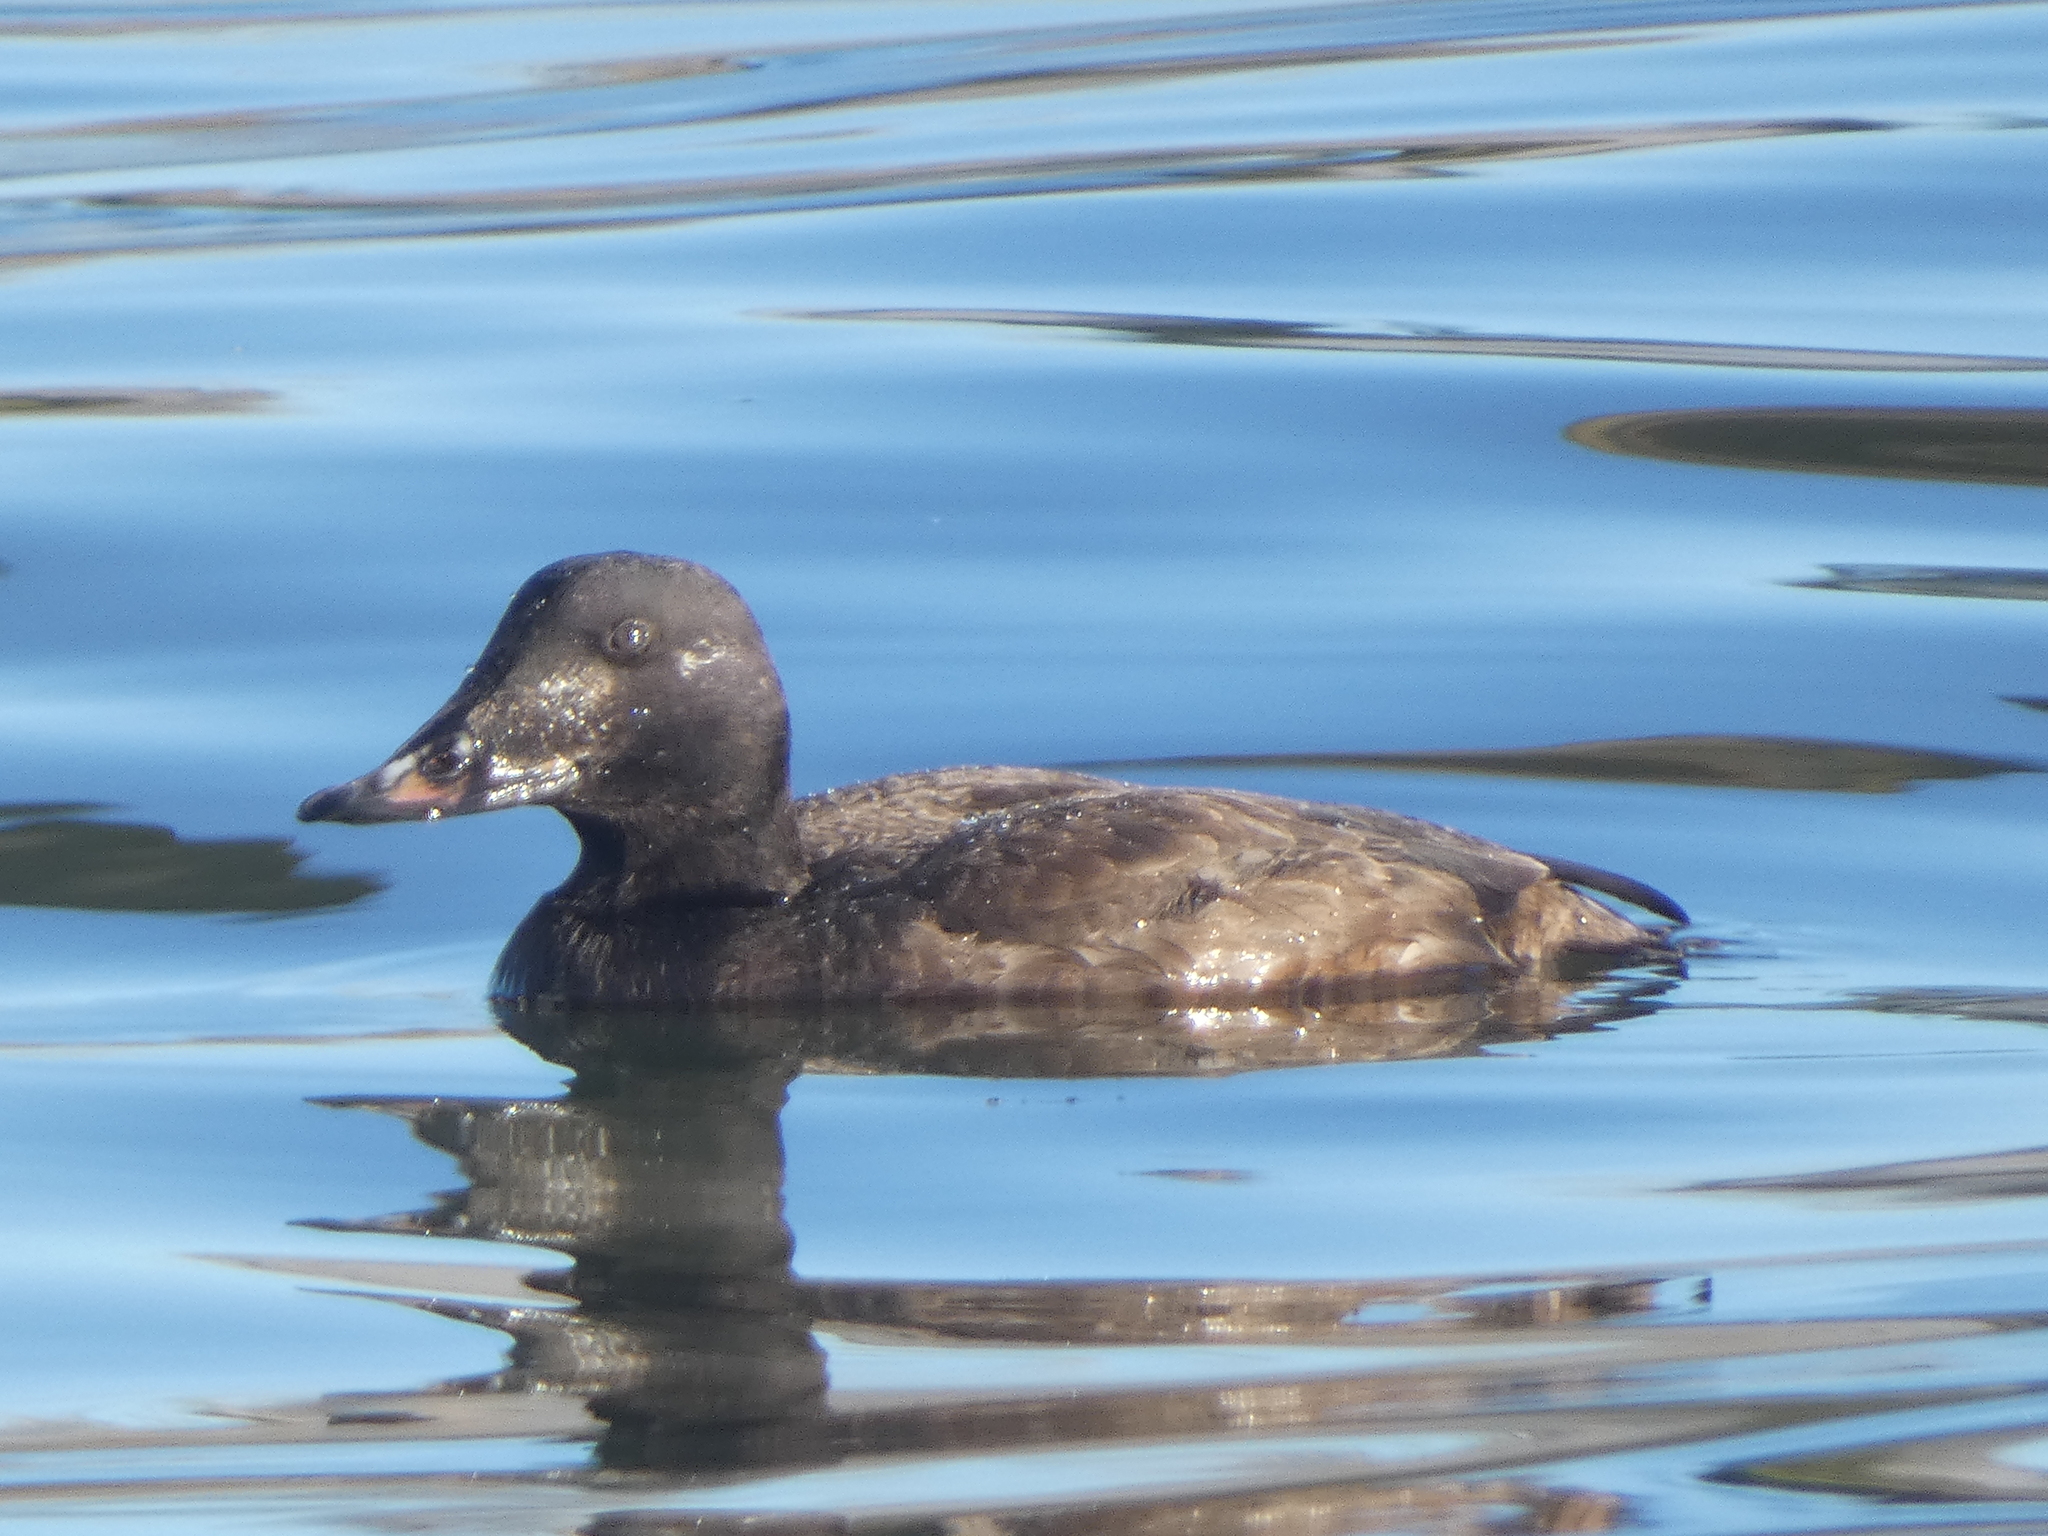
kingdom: Animalia
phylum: Chordata
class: Aves
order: Anseriformes
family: Anatidae
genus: Melanitta
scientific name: Melanitta deglandi
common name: White-winged scoter
